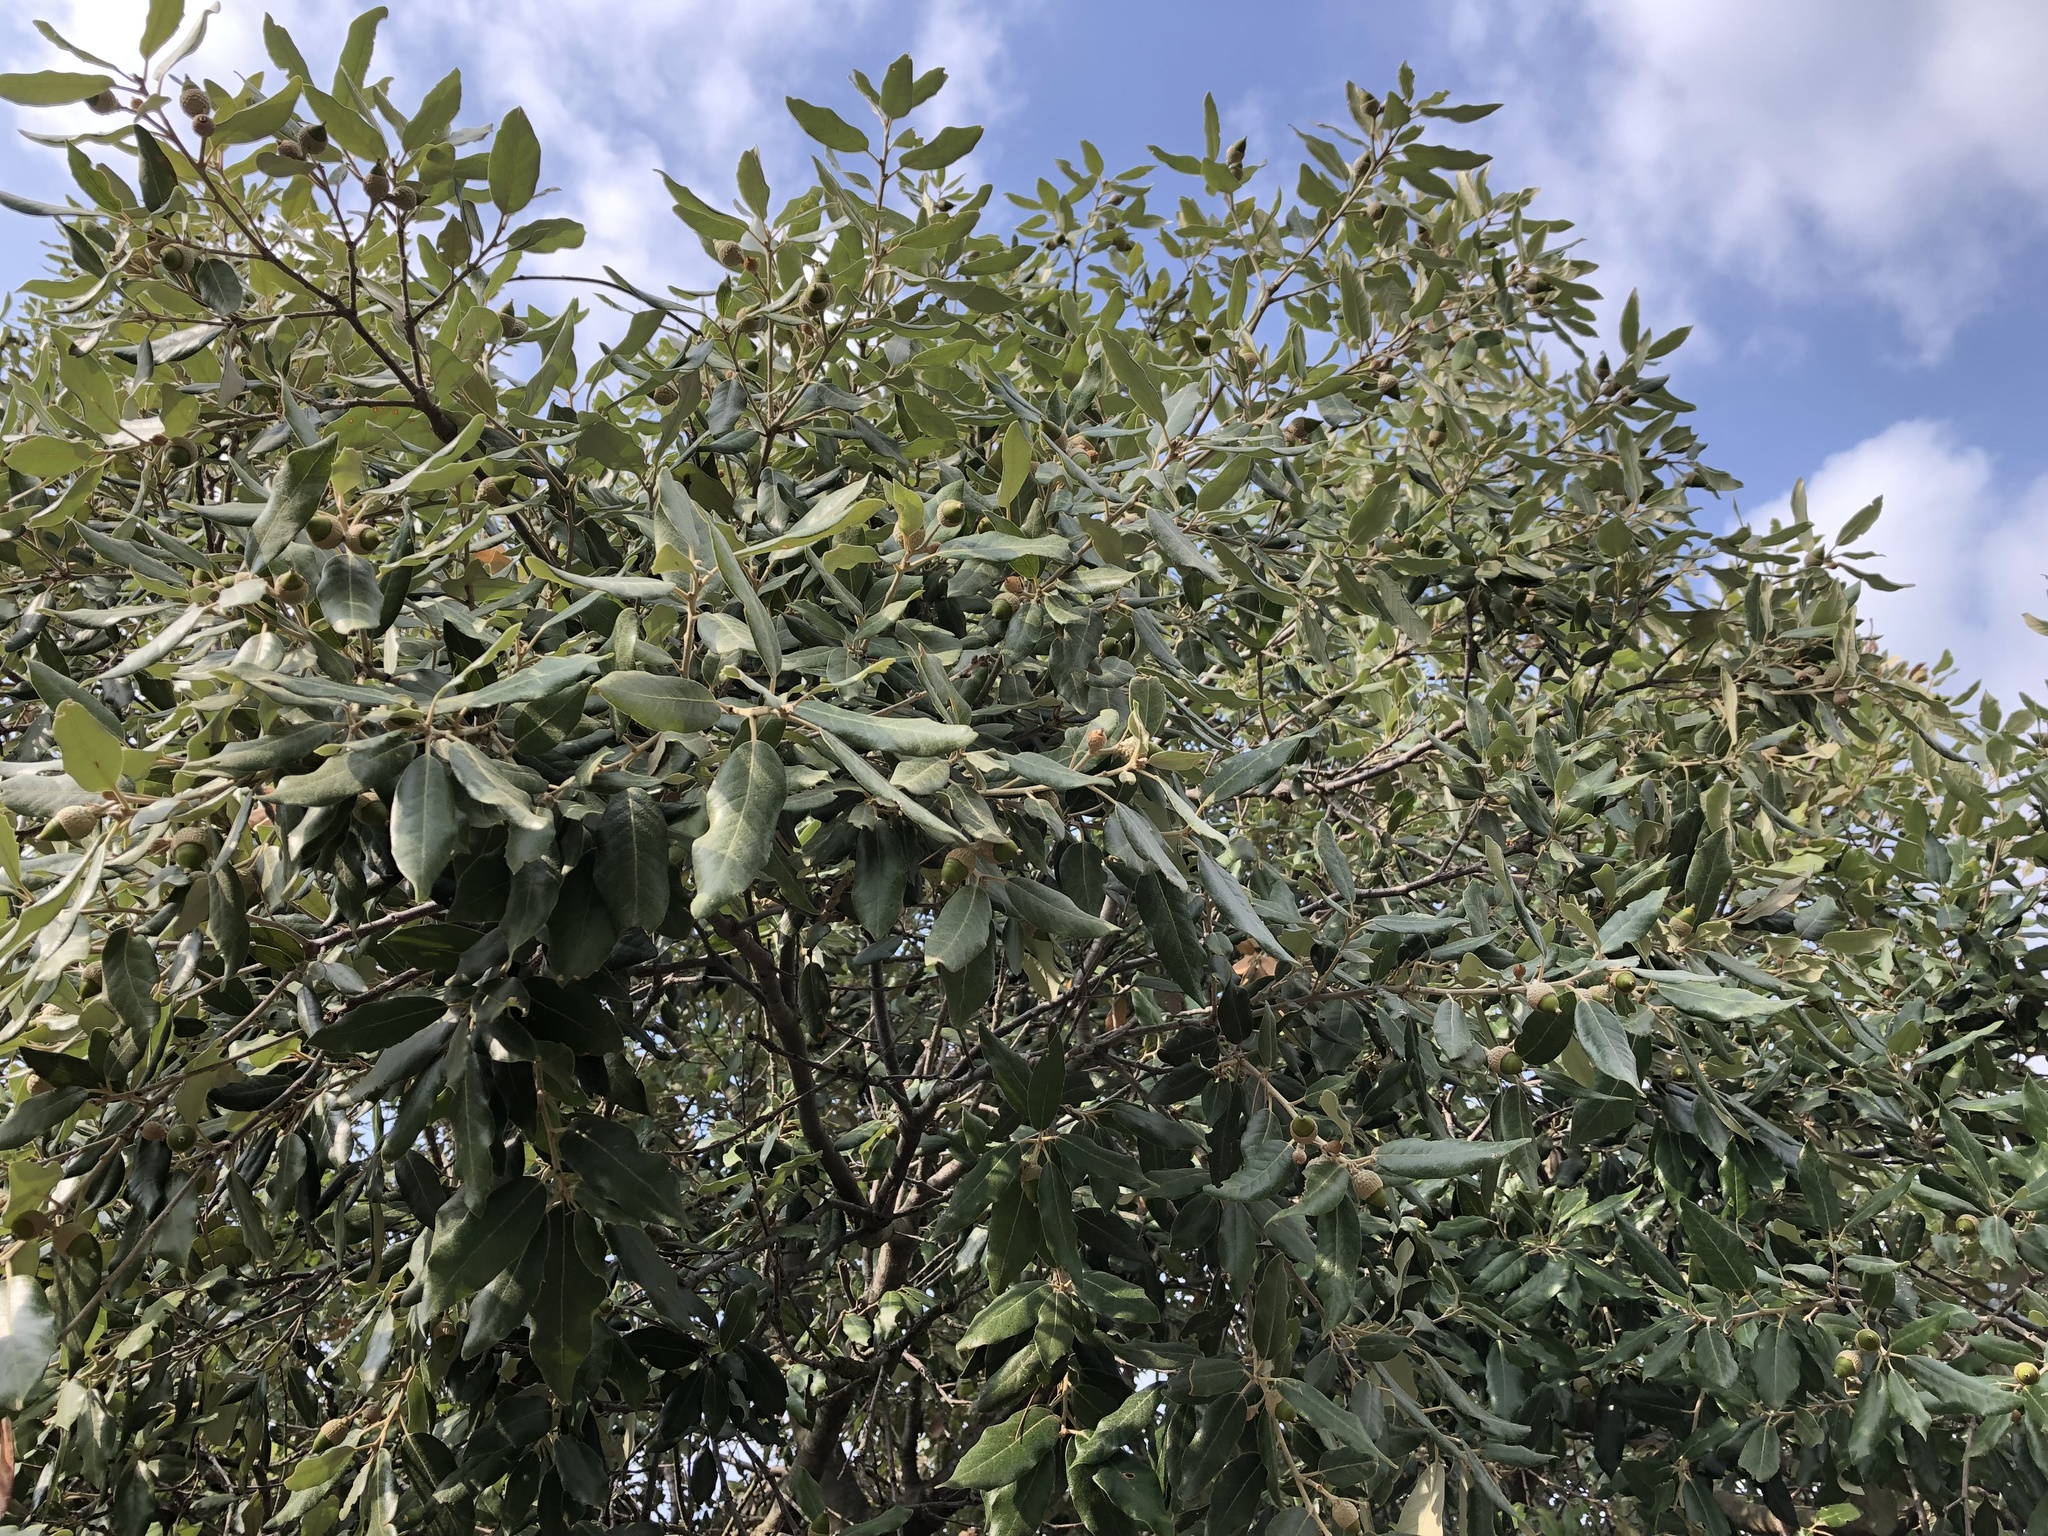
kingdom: Plantae
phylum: Tracheophyta
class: Magnoliopsida
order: Fagales
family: Fagaceae
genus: Quercus
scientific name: Quercus ilex
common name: Evergreen oak
